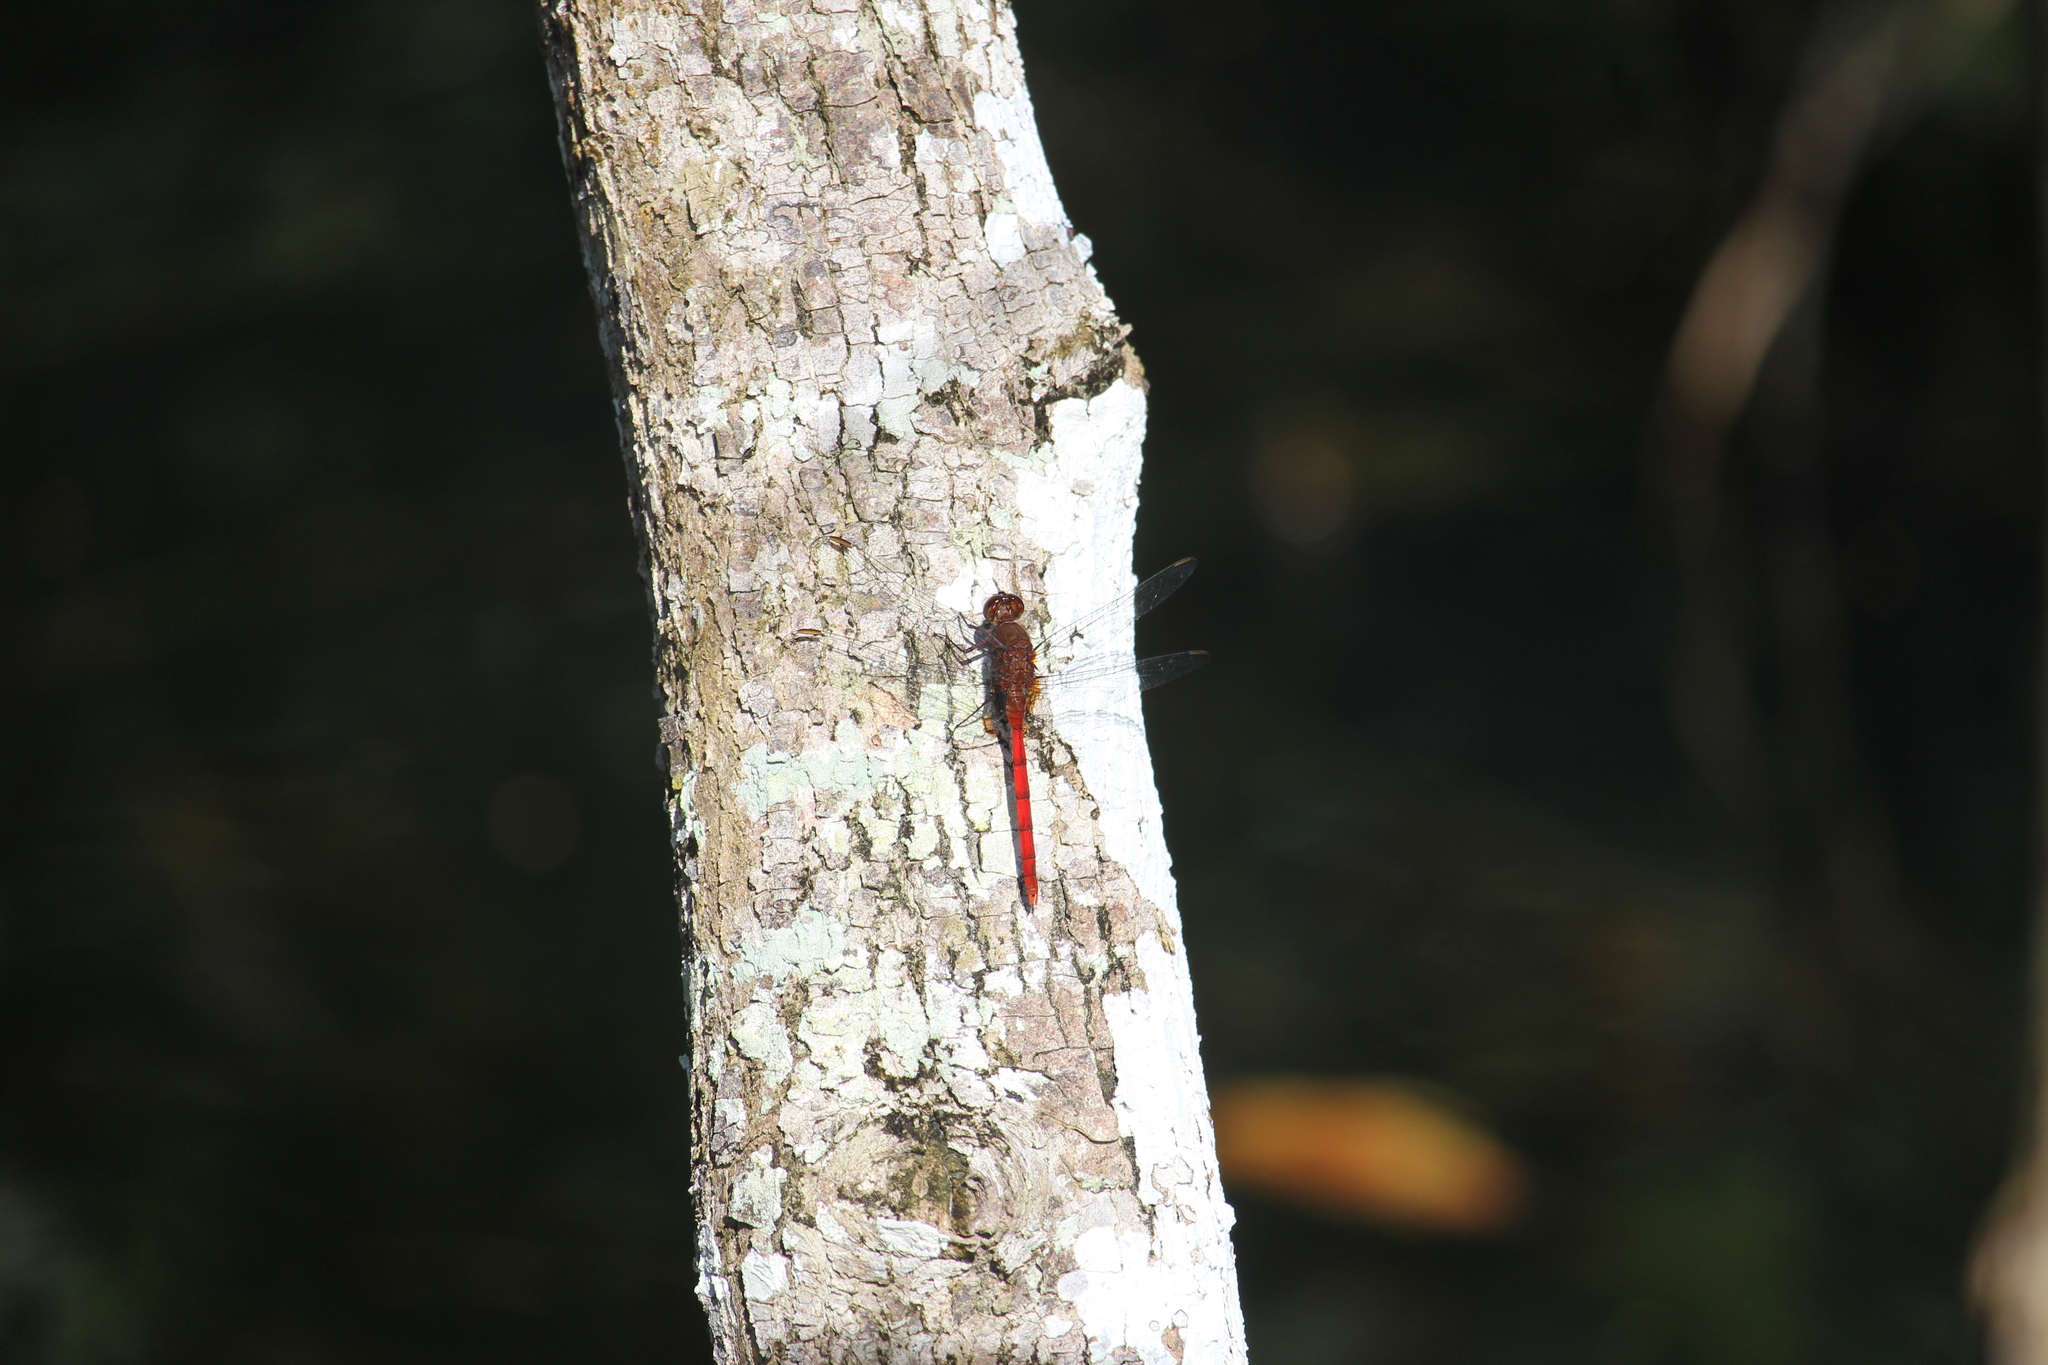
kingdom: Animalia
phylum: Arthropoda
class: Insecta
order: Odonata
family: Libellulidae
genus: Erythemis
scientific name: Erythemis haematogastra
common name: Red pondhawk
